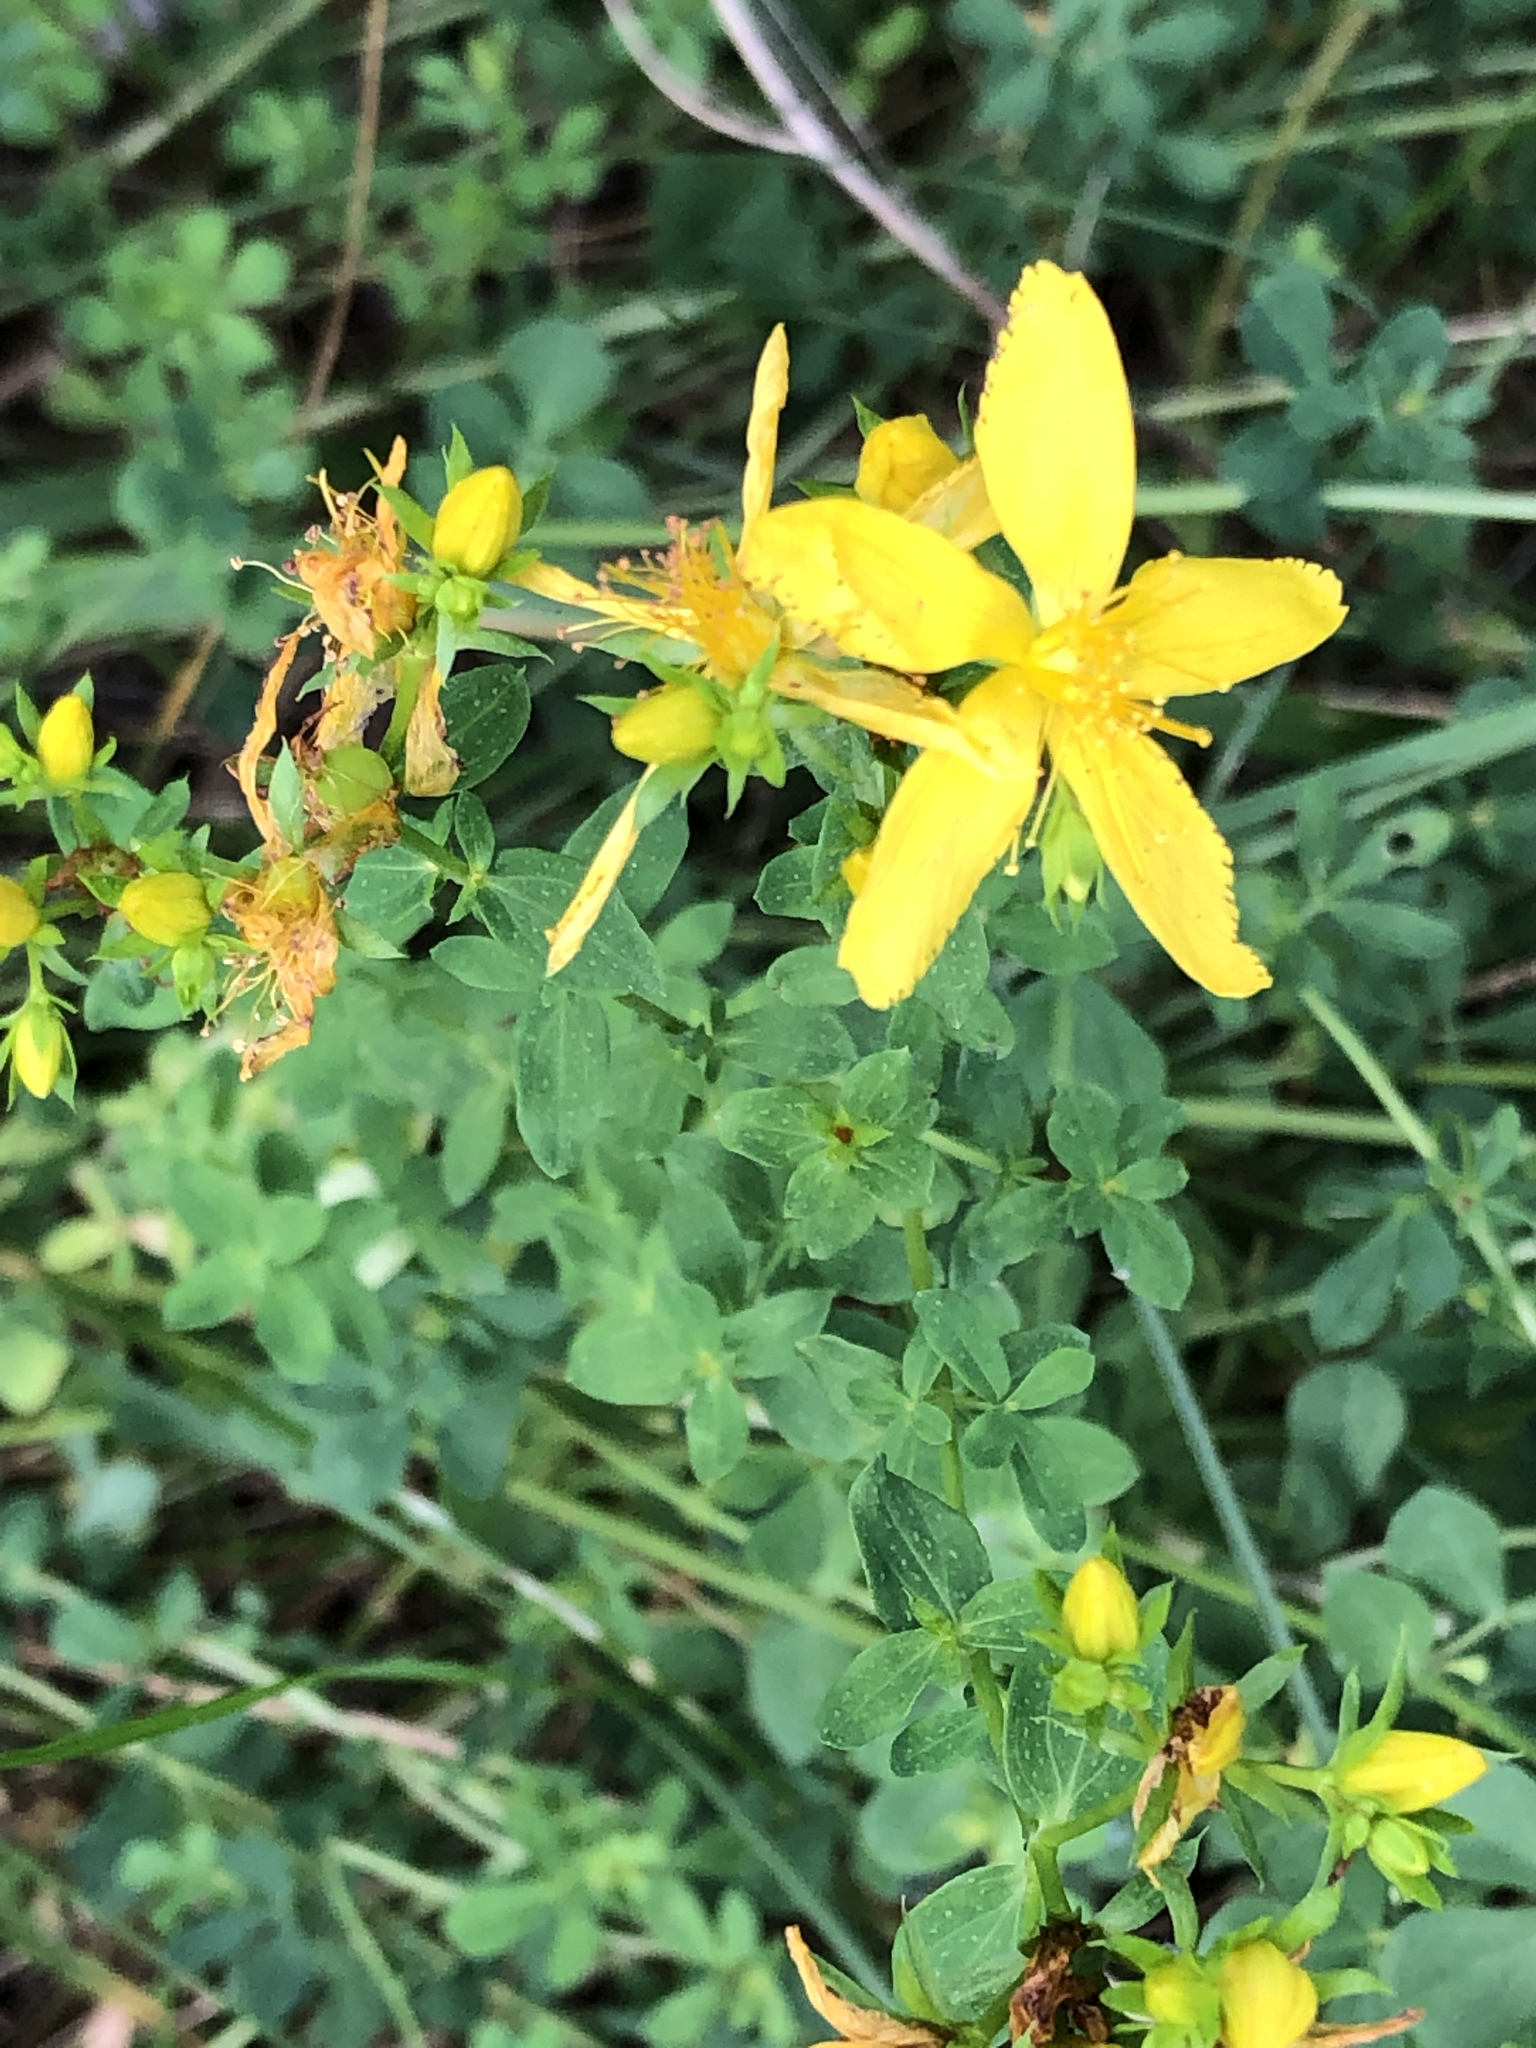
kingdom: Plantae
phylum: Tracheophyta
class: Magnoliopsida
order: Malpighiales
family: Hypericaceae
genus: Hypericum
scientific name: Hypericum perforatum
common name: Common st. johnswort
